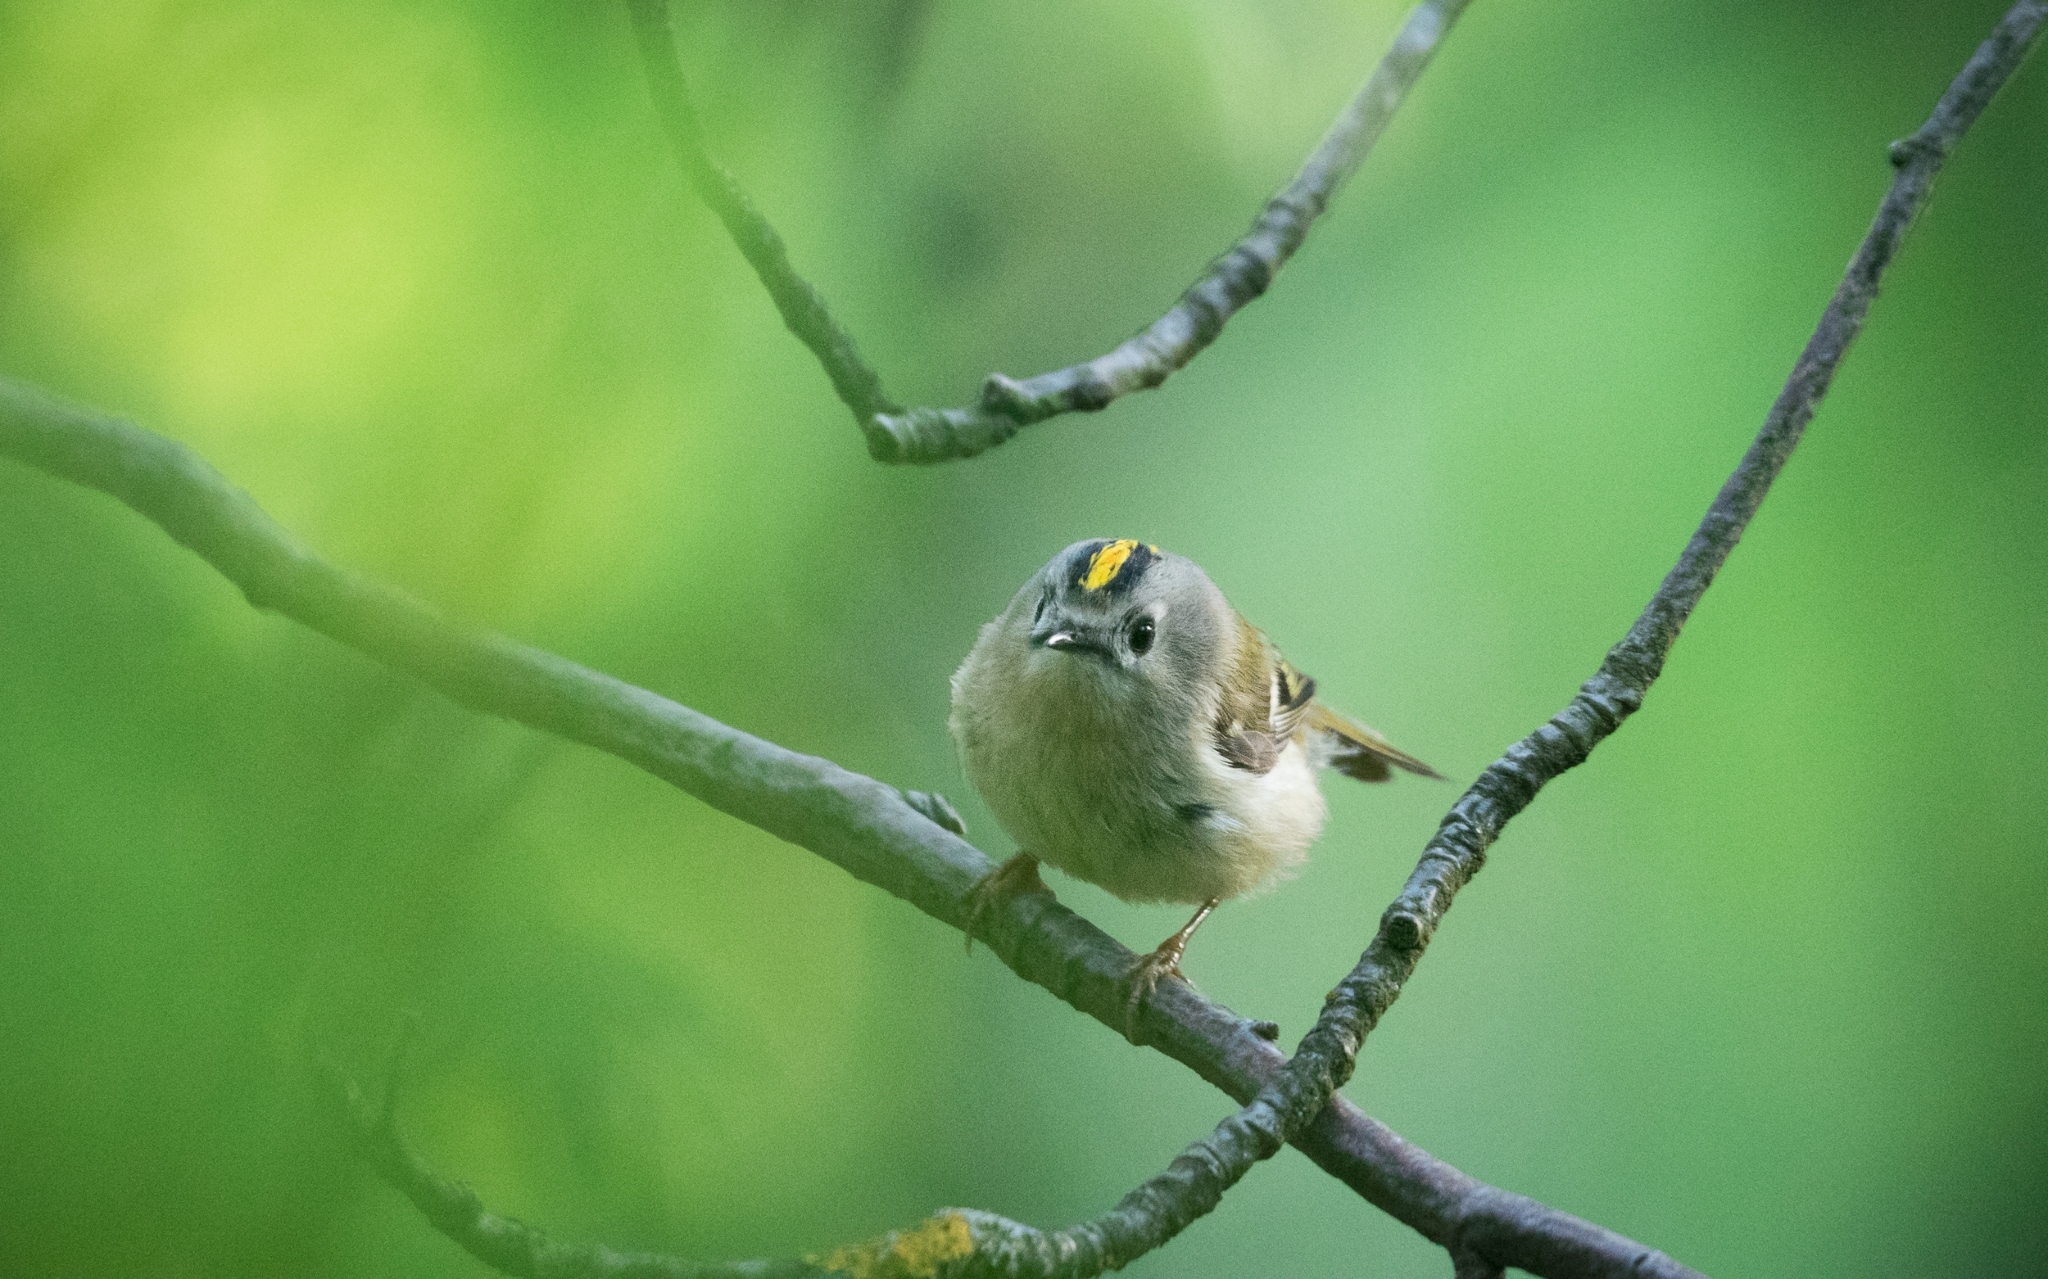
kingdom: Animalia
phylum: Chordata
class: Aves
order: Passeriformes
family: Regulidae
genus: Regulus
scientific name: Regulus regulus
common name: Goldcrest
